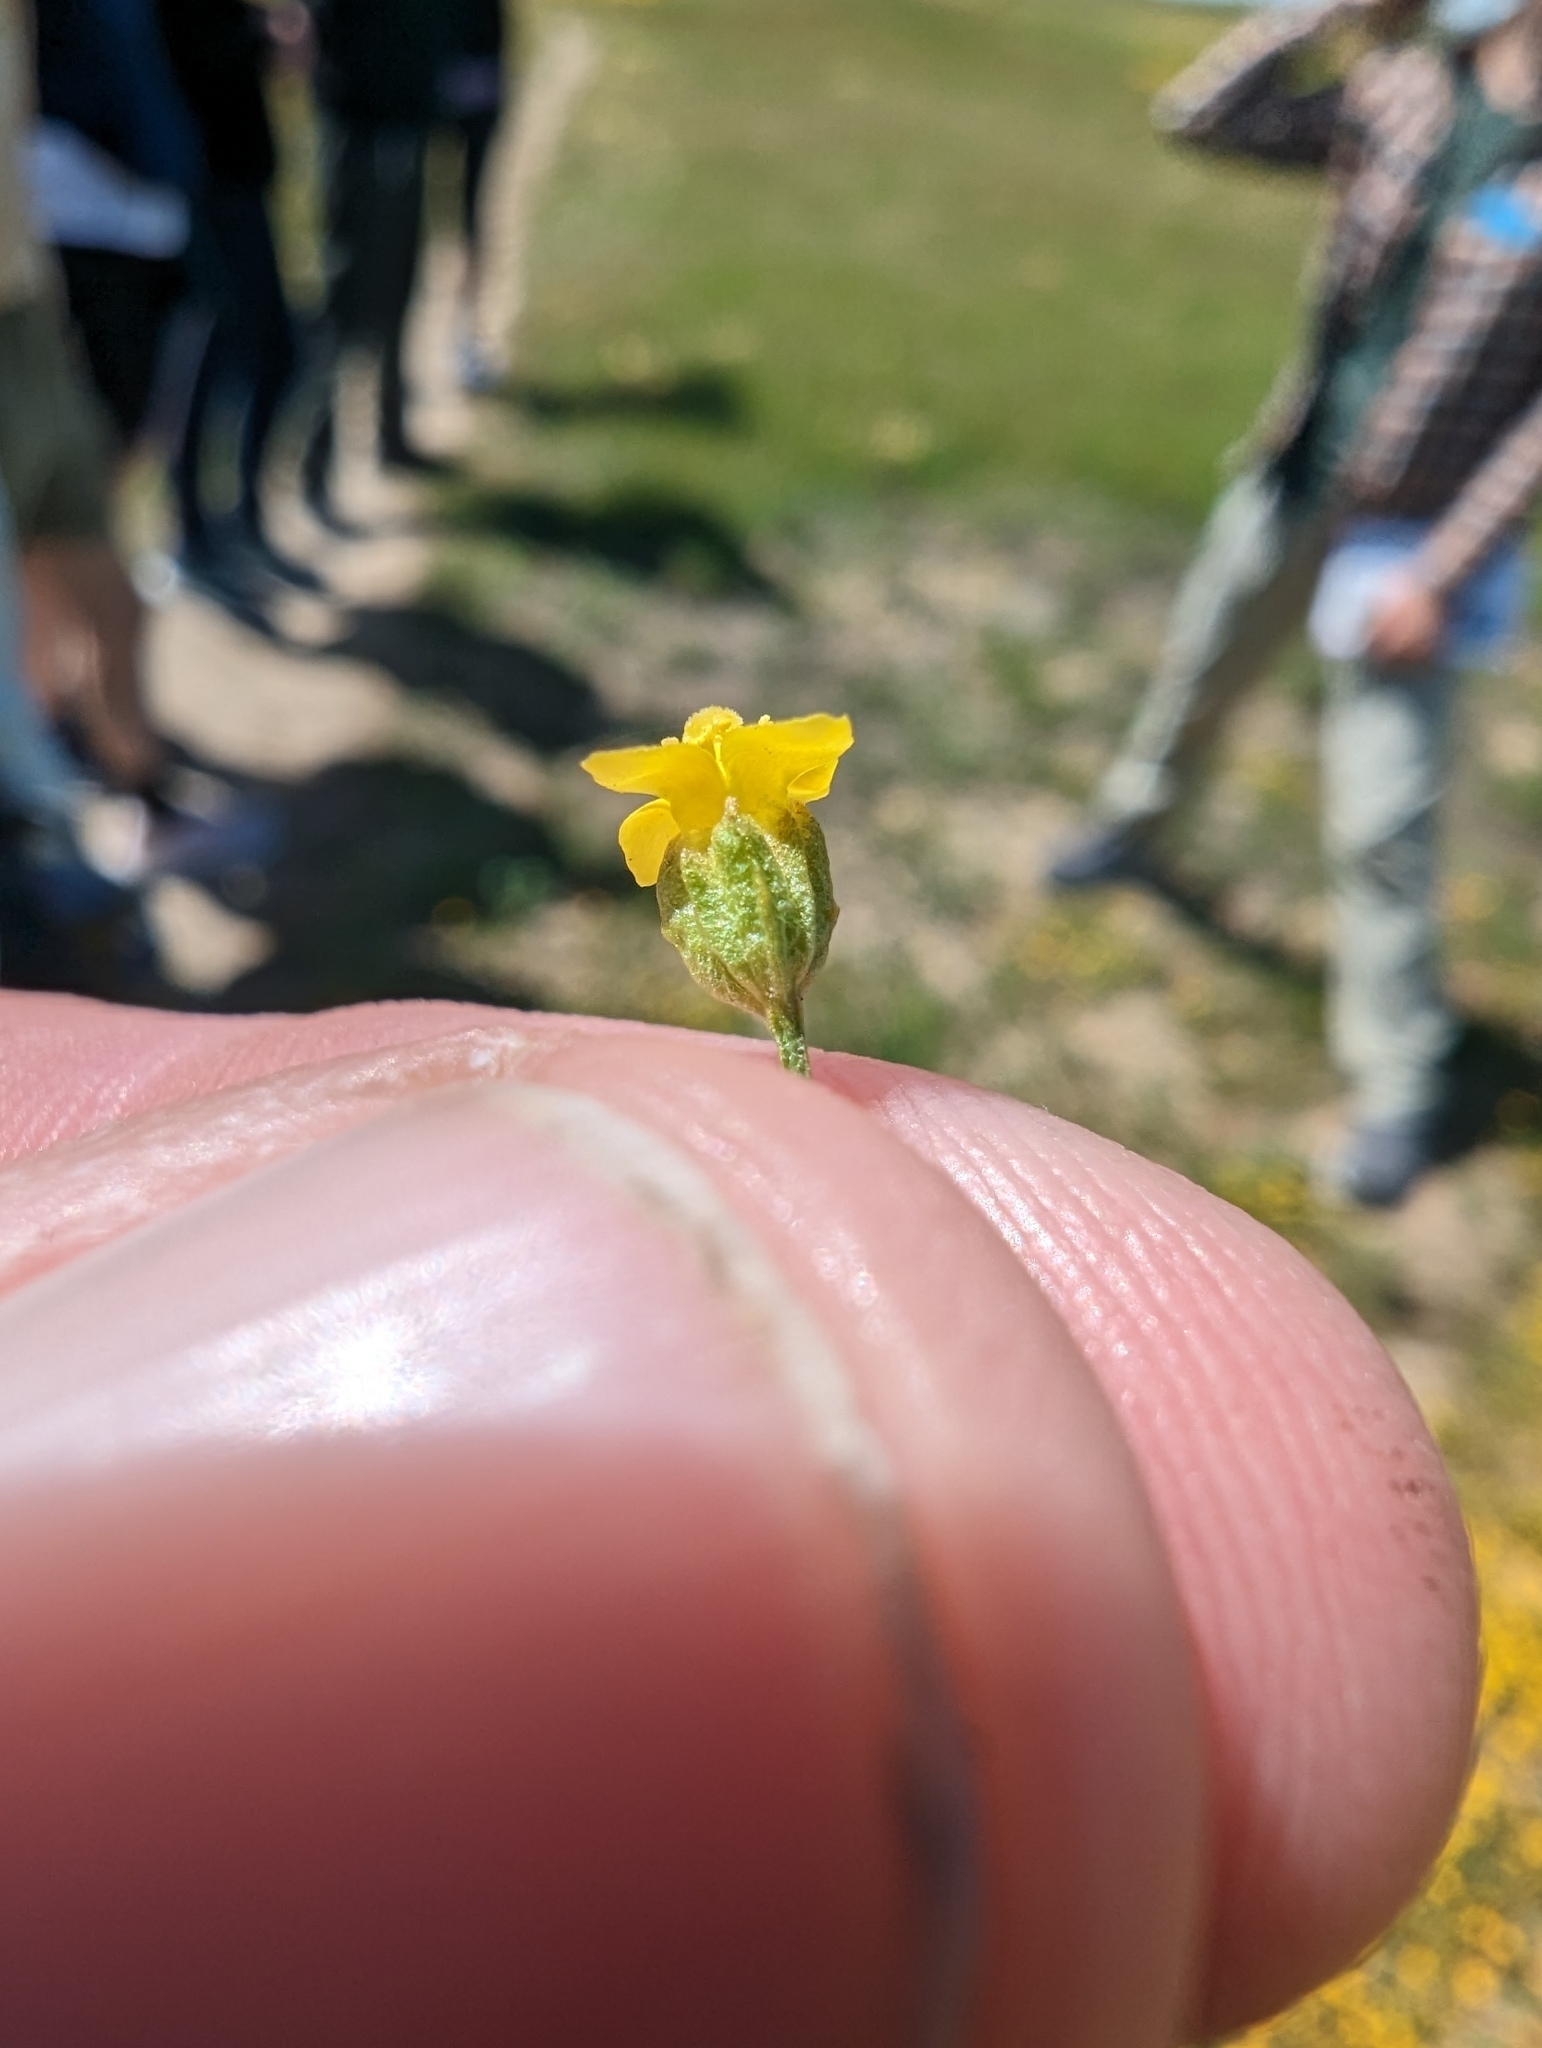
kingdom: Plantae
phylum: Tracheophyta
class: Magnoliopsida
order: Gentianales
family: Gentianaceae
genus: Microcala
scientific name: Microcala quadrangularis
